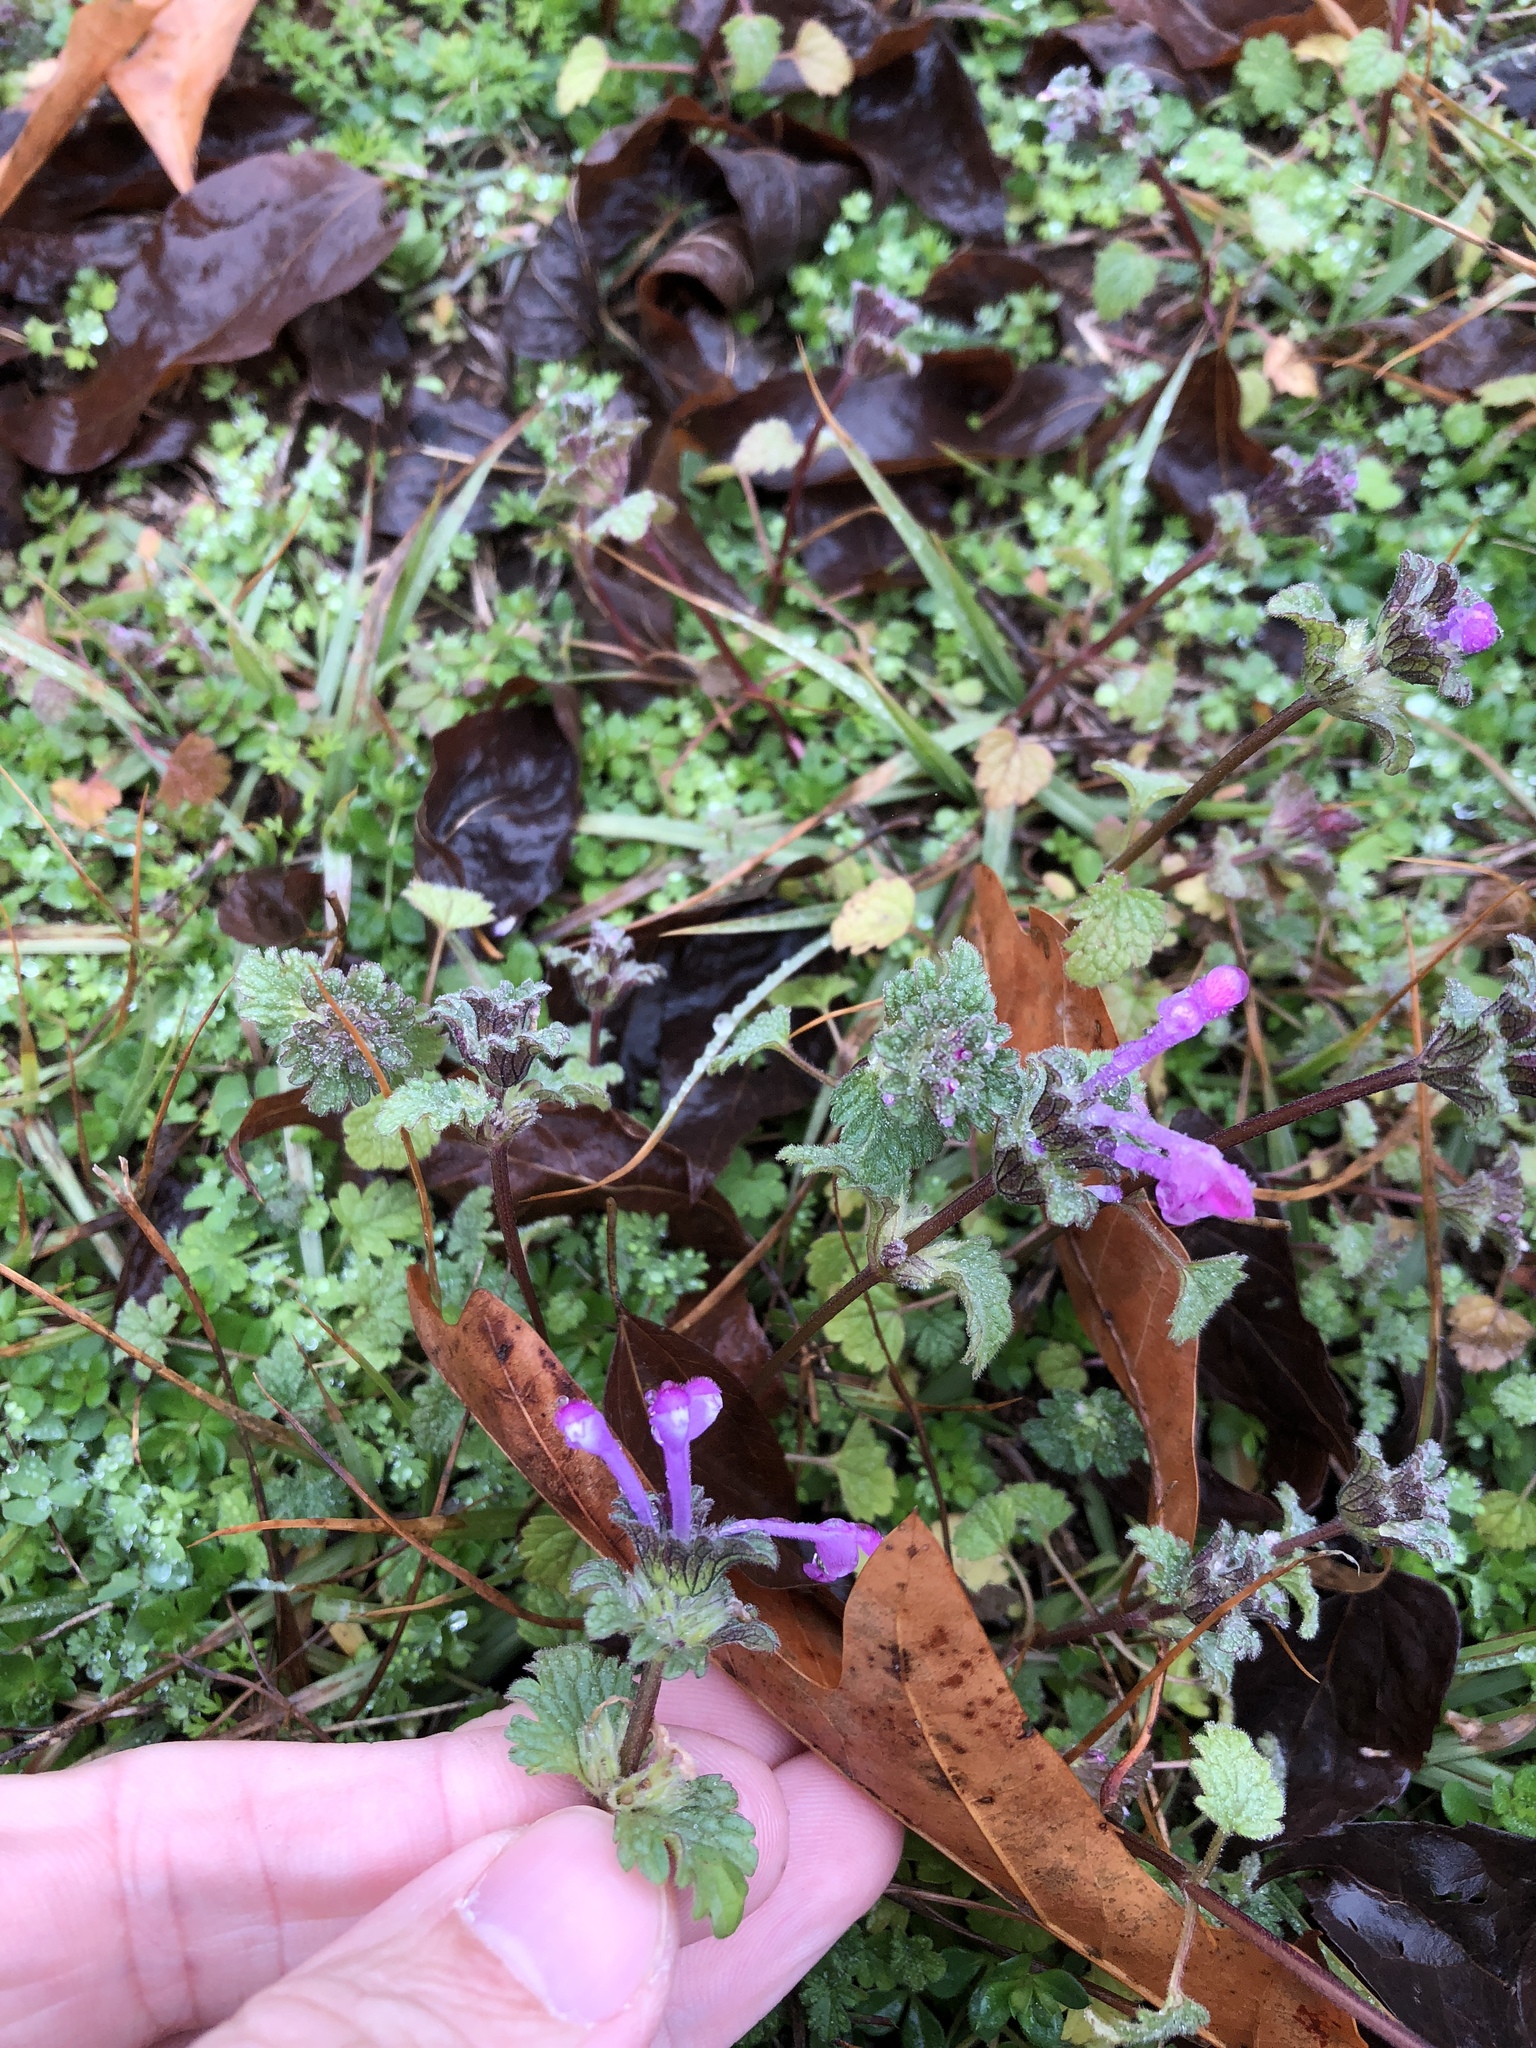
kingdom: Plantae
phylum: Tracheophyta
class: Magnoliopsida
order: Lamiales
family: Lamiaceae
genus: Lamium
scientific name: Lamium amplexicaule
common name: Henbit dead-nettle
